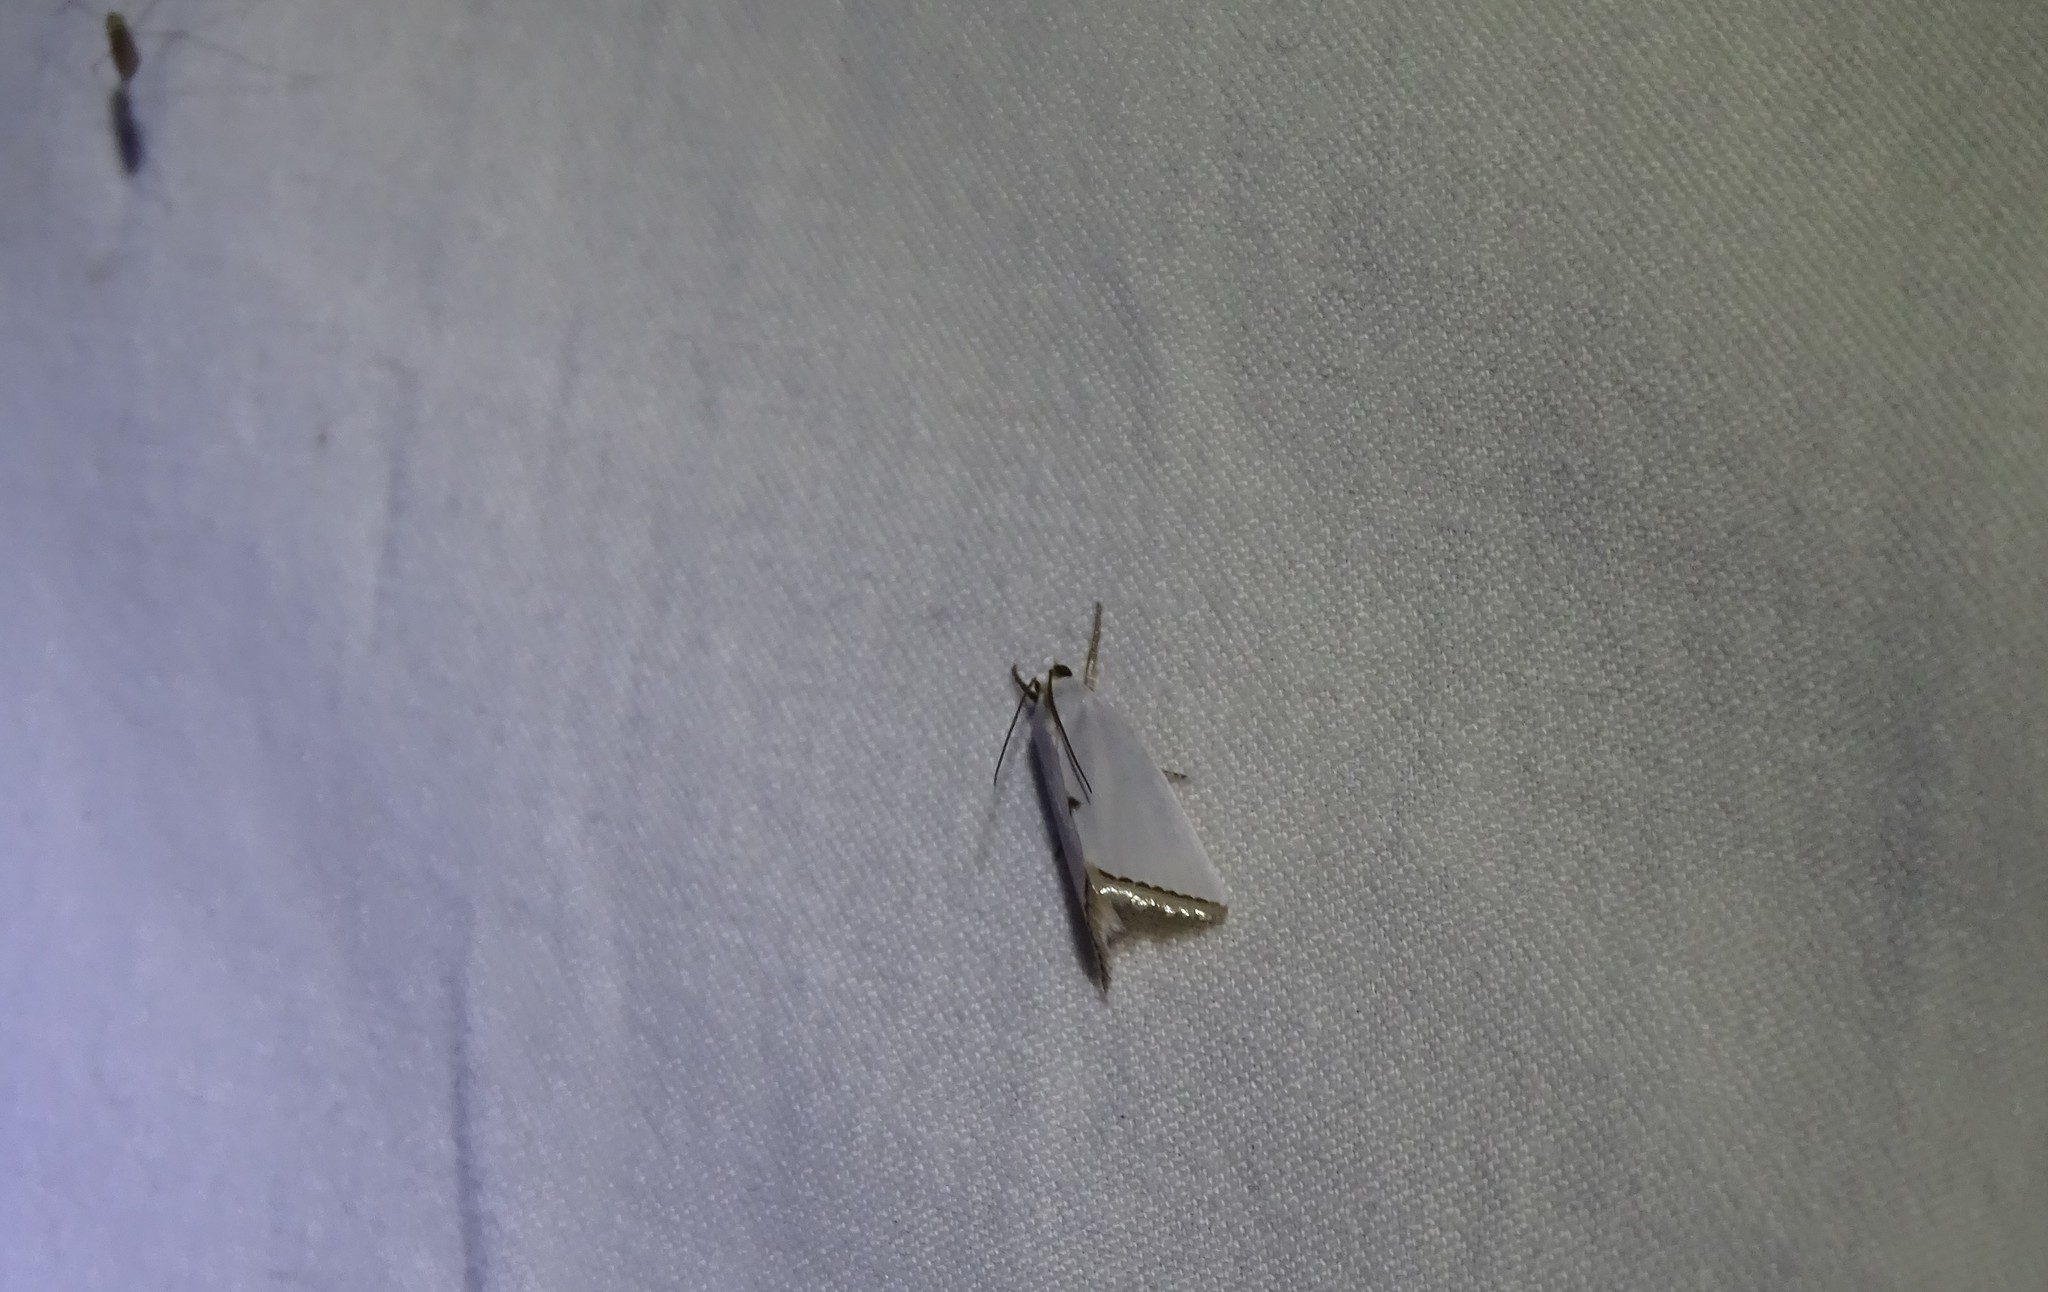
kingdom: Animalia
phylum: Arthropoda
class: Insecta
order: Lepidoptera
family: Crambidae
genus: Argyria
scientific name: Argyria nivalis
